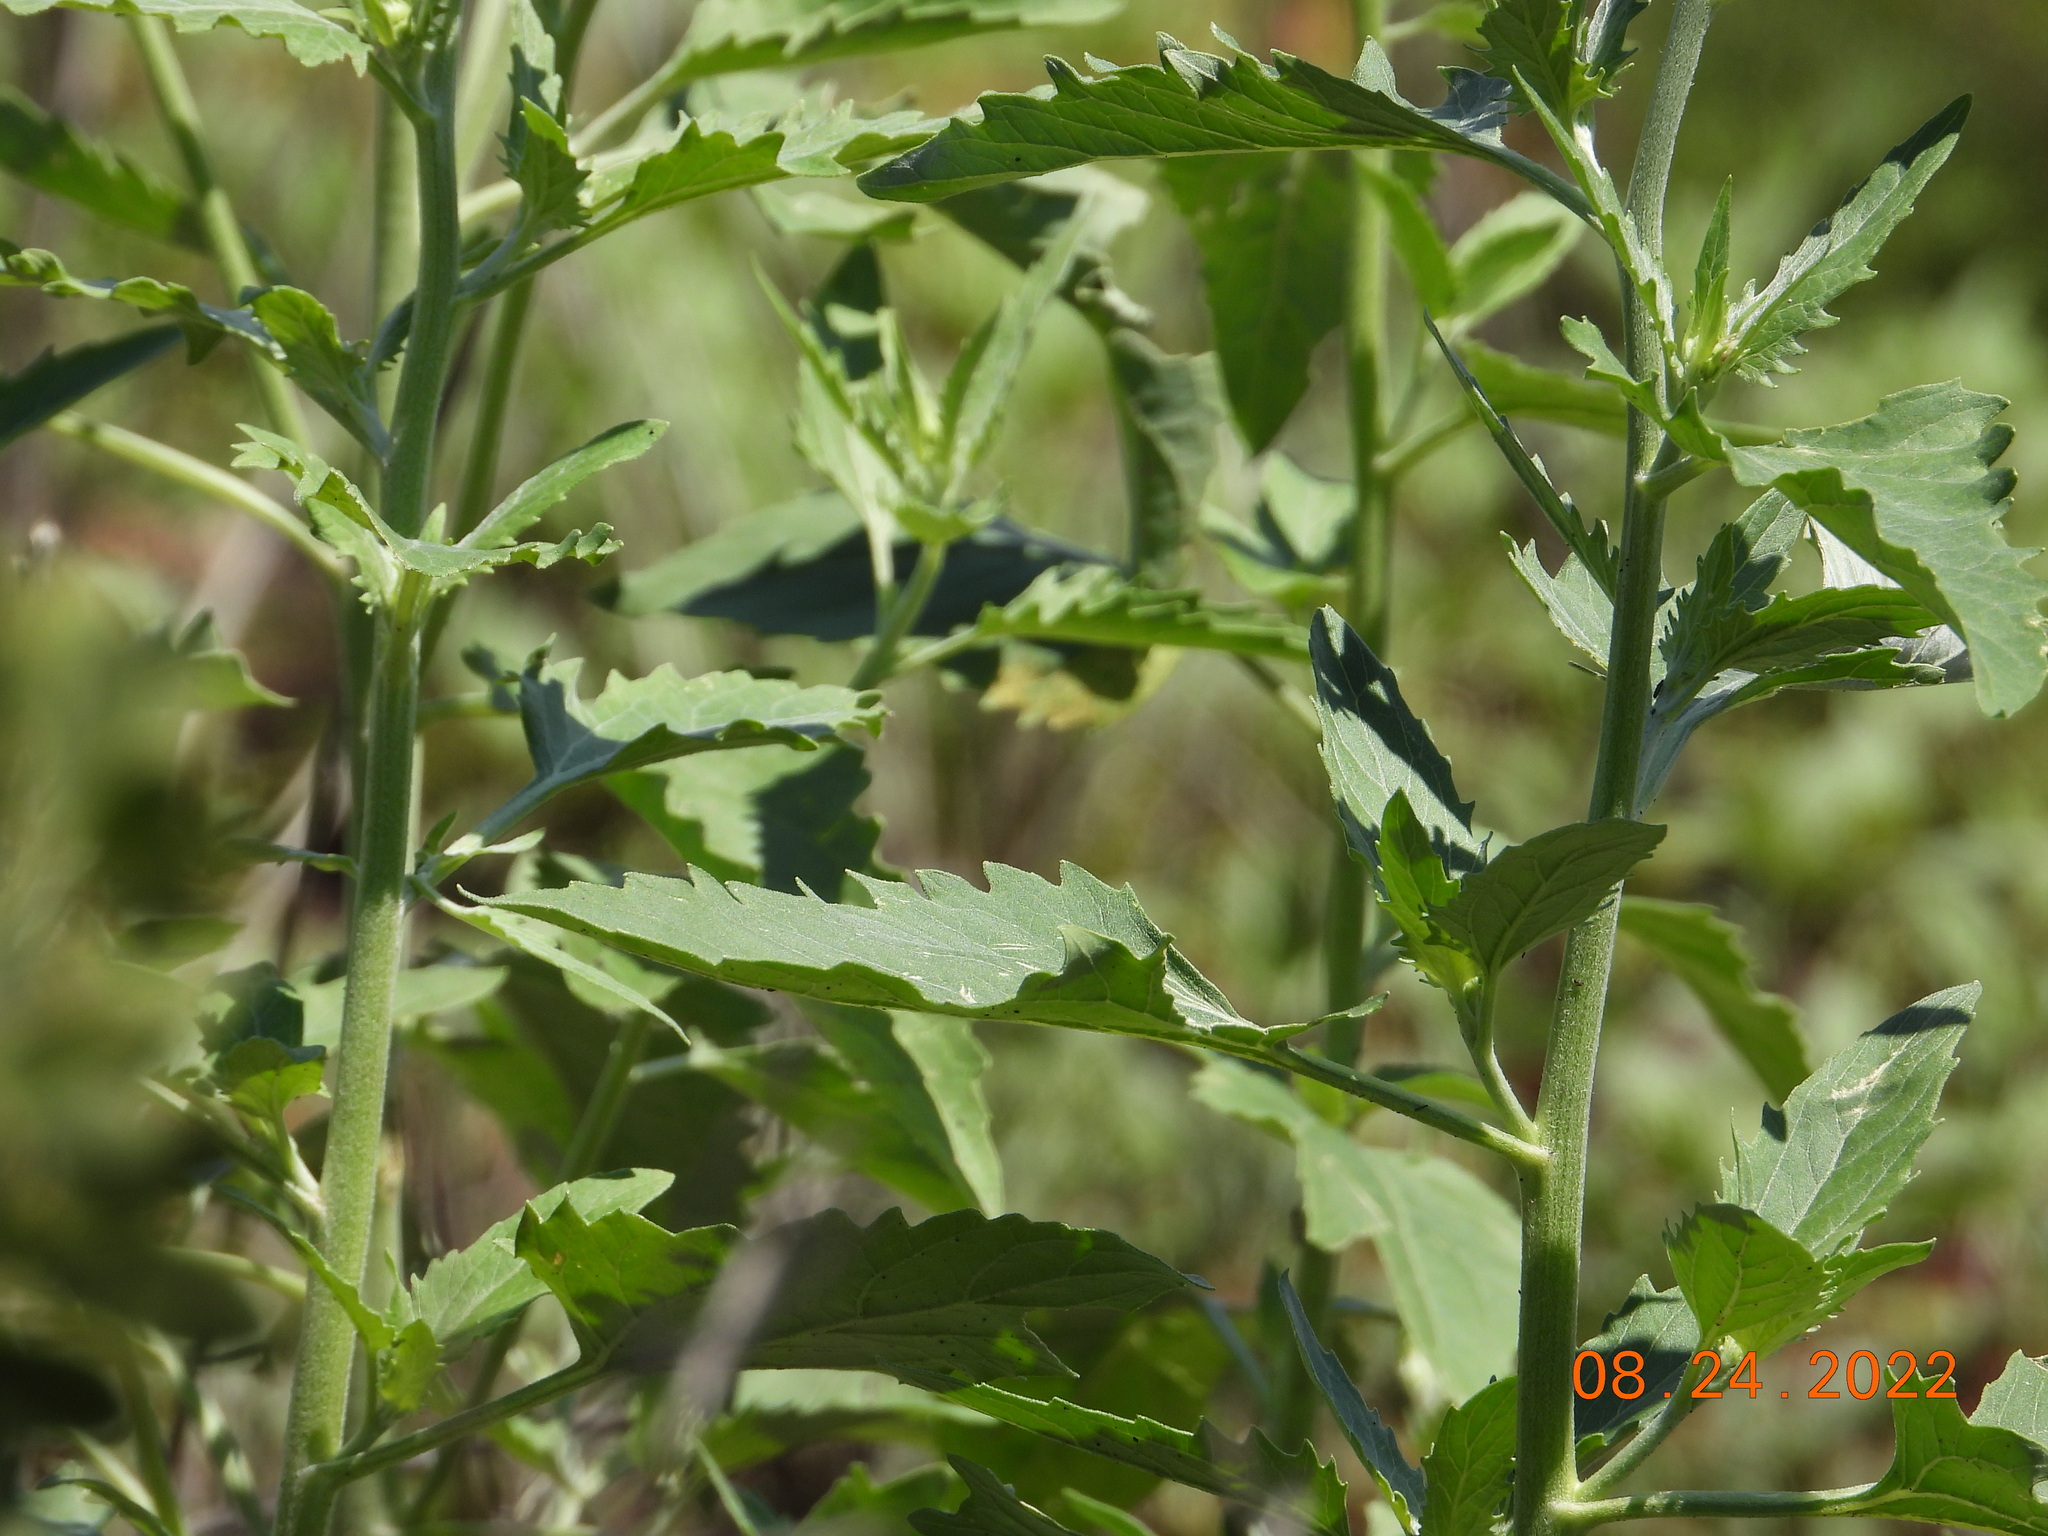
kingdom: Plantae
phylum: Tracheophyta
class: Magnoliopsida
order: Asterales
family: Asteraceae
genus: Verbesina
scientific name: Verbesina encelioides
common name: Golden crownbeard
